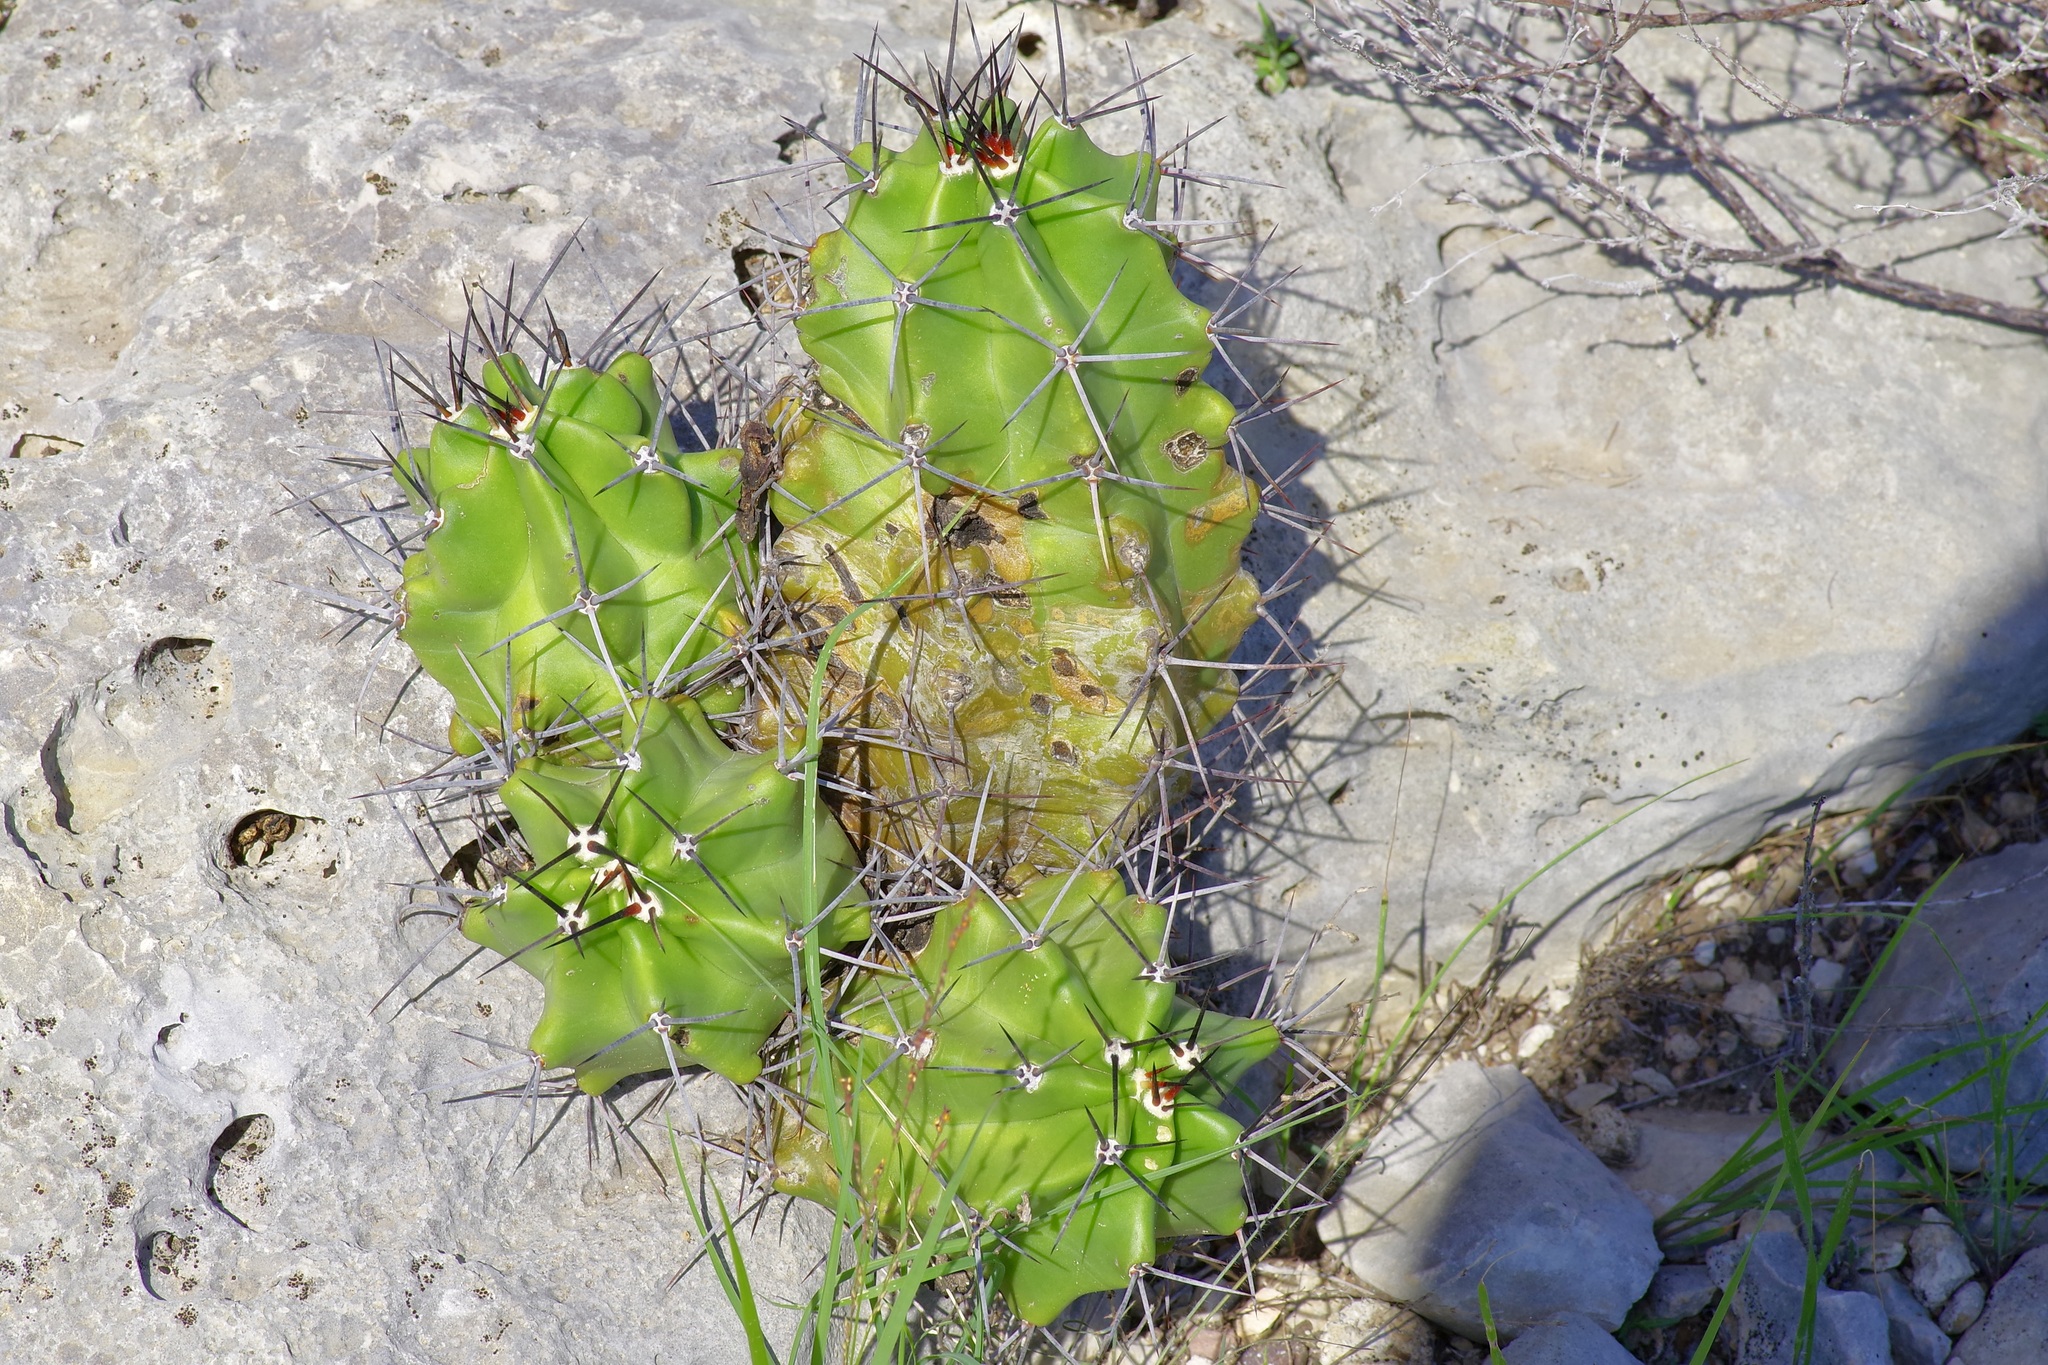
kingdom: Plantae
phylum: Tracheophyta
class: Magnoliopsida
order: Caryophyllales
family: Cactaceae
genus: Echinocereus
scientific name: Echinocereus coccineus
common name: Scarlet hedgehog cactus
